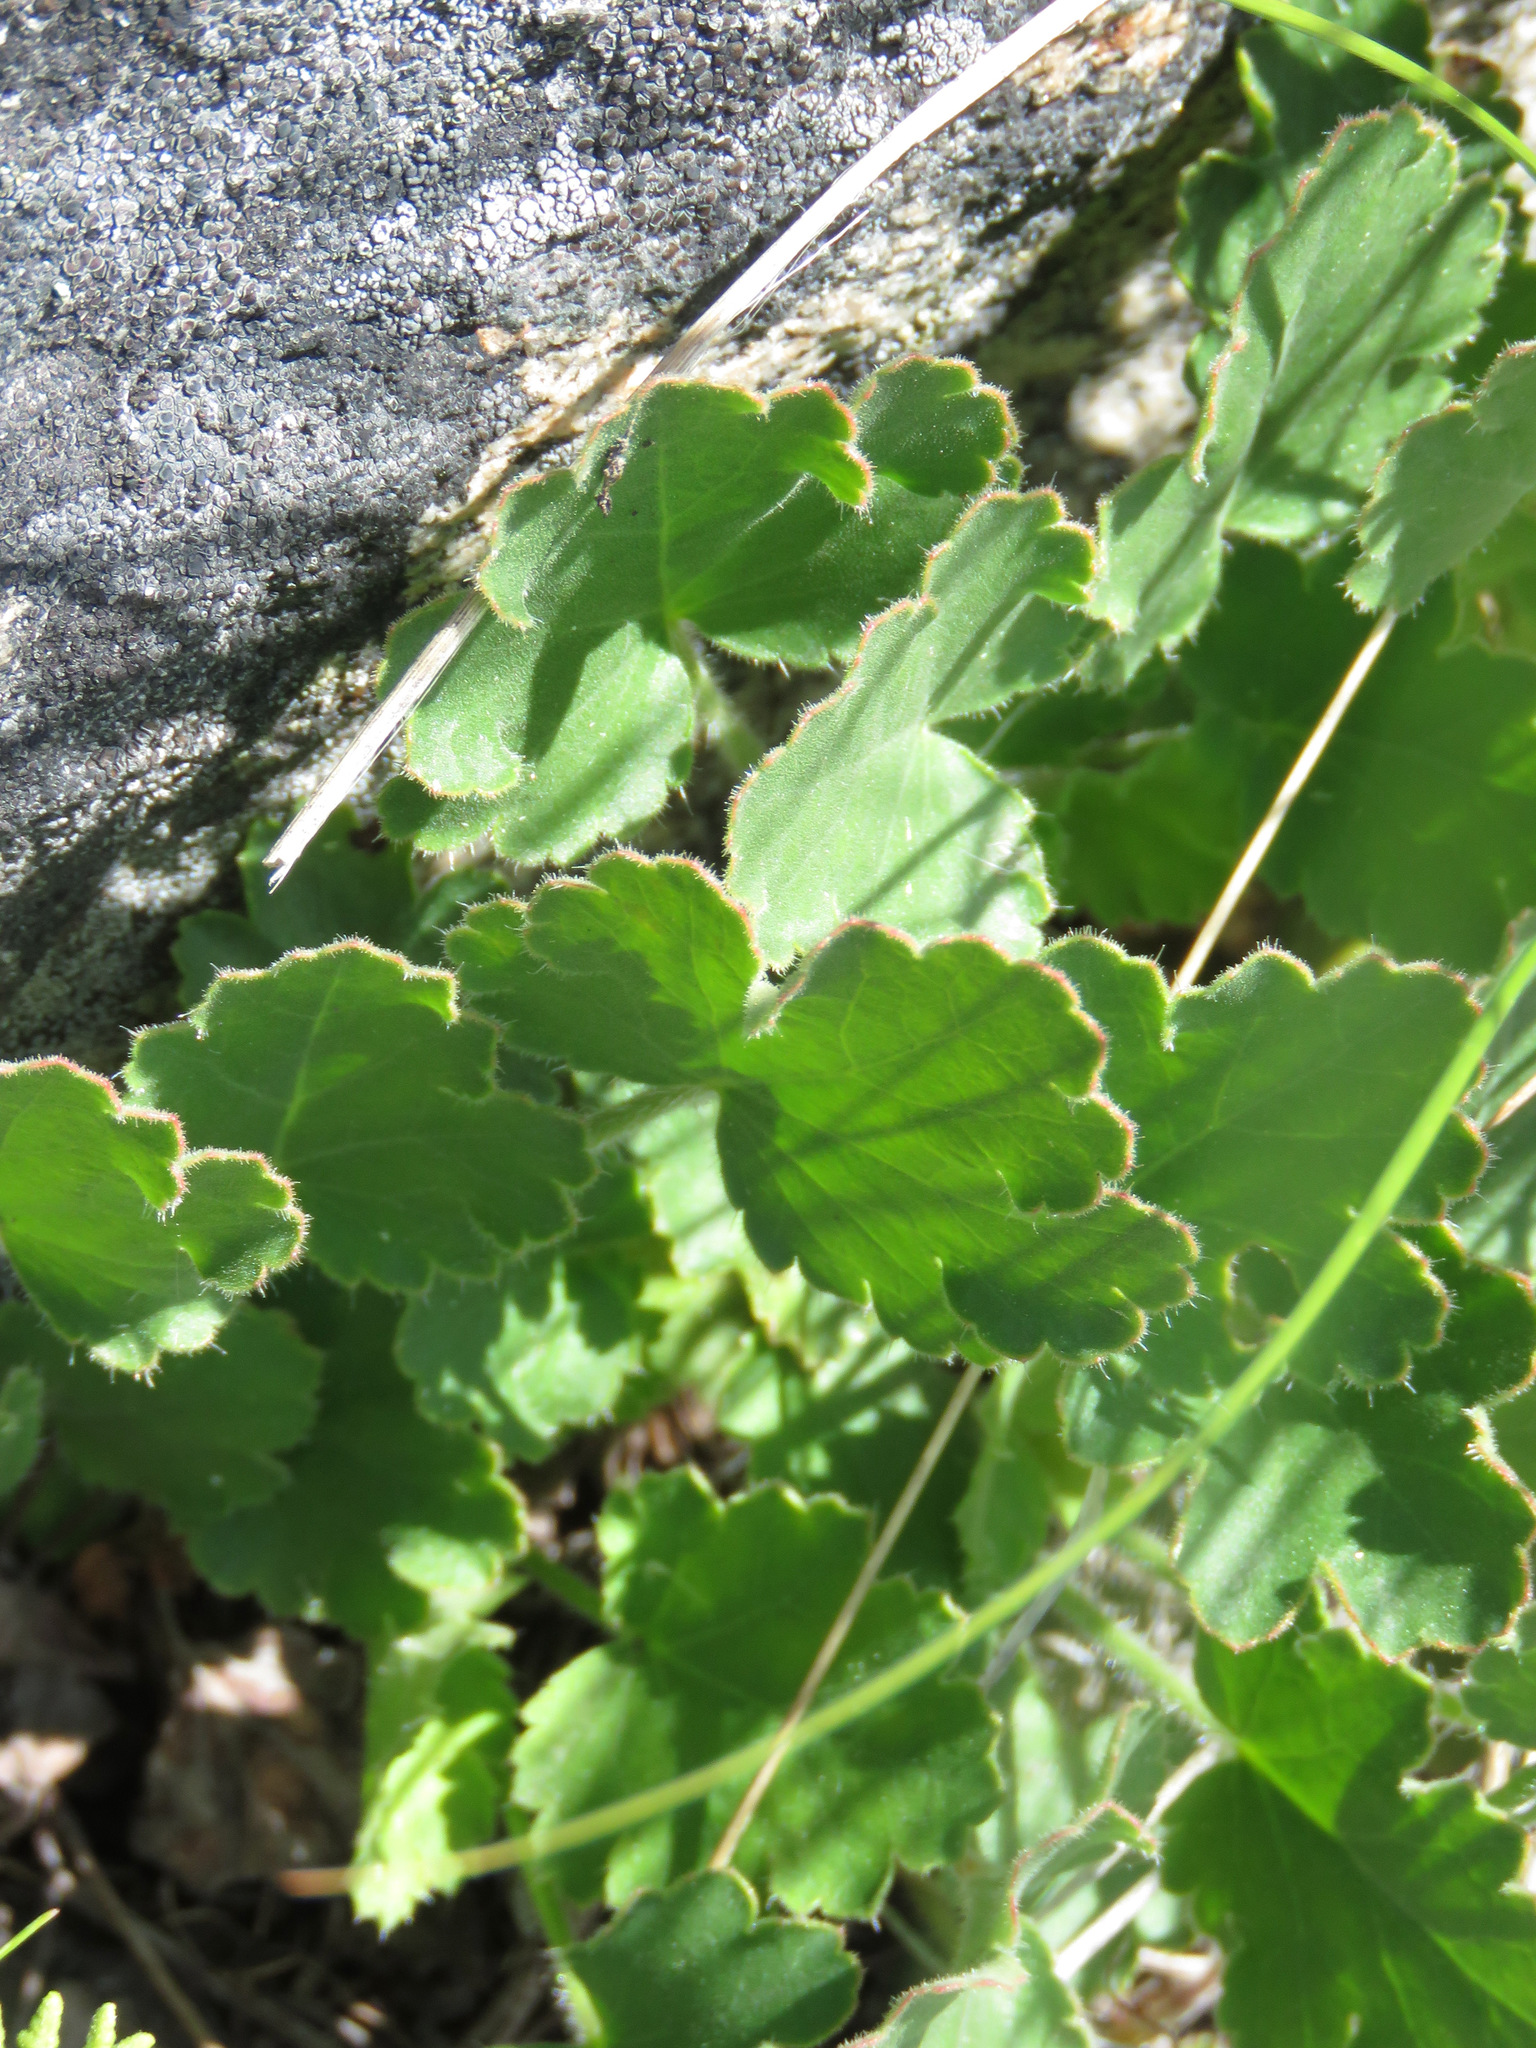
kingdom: Plantae
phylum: Tracheophyta
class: Magnoliopsida
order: Saxifragales
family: Saxifragaceae
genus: Heuchera
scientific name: Heuchera cylindrica
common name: Mat alumroot
